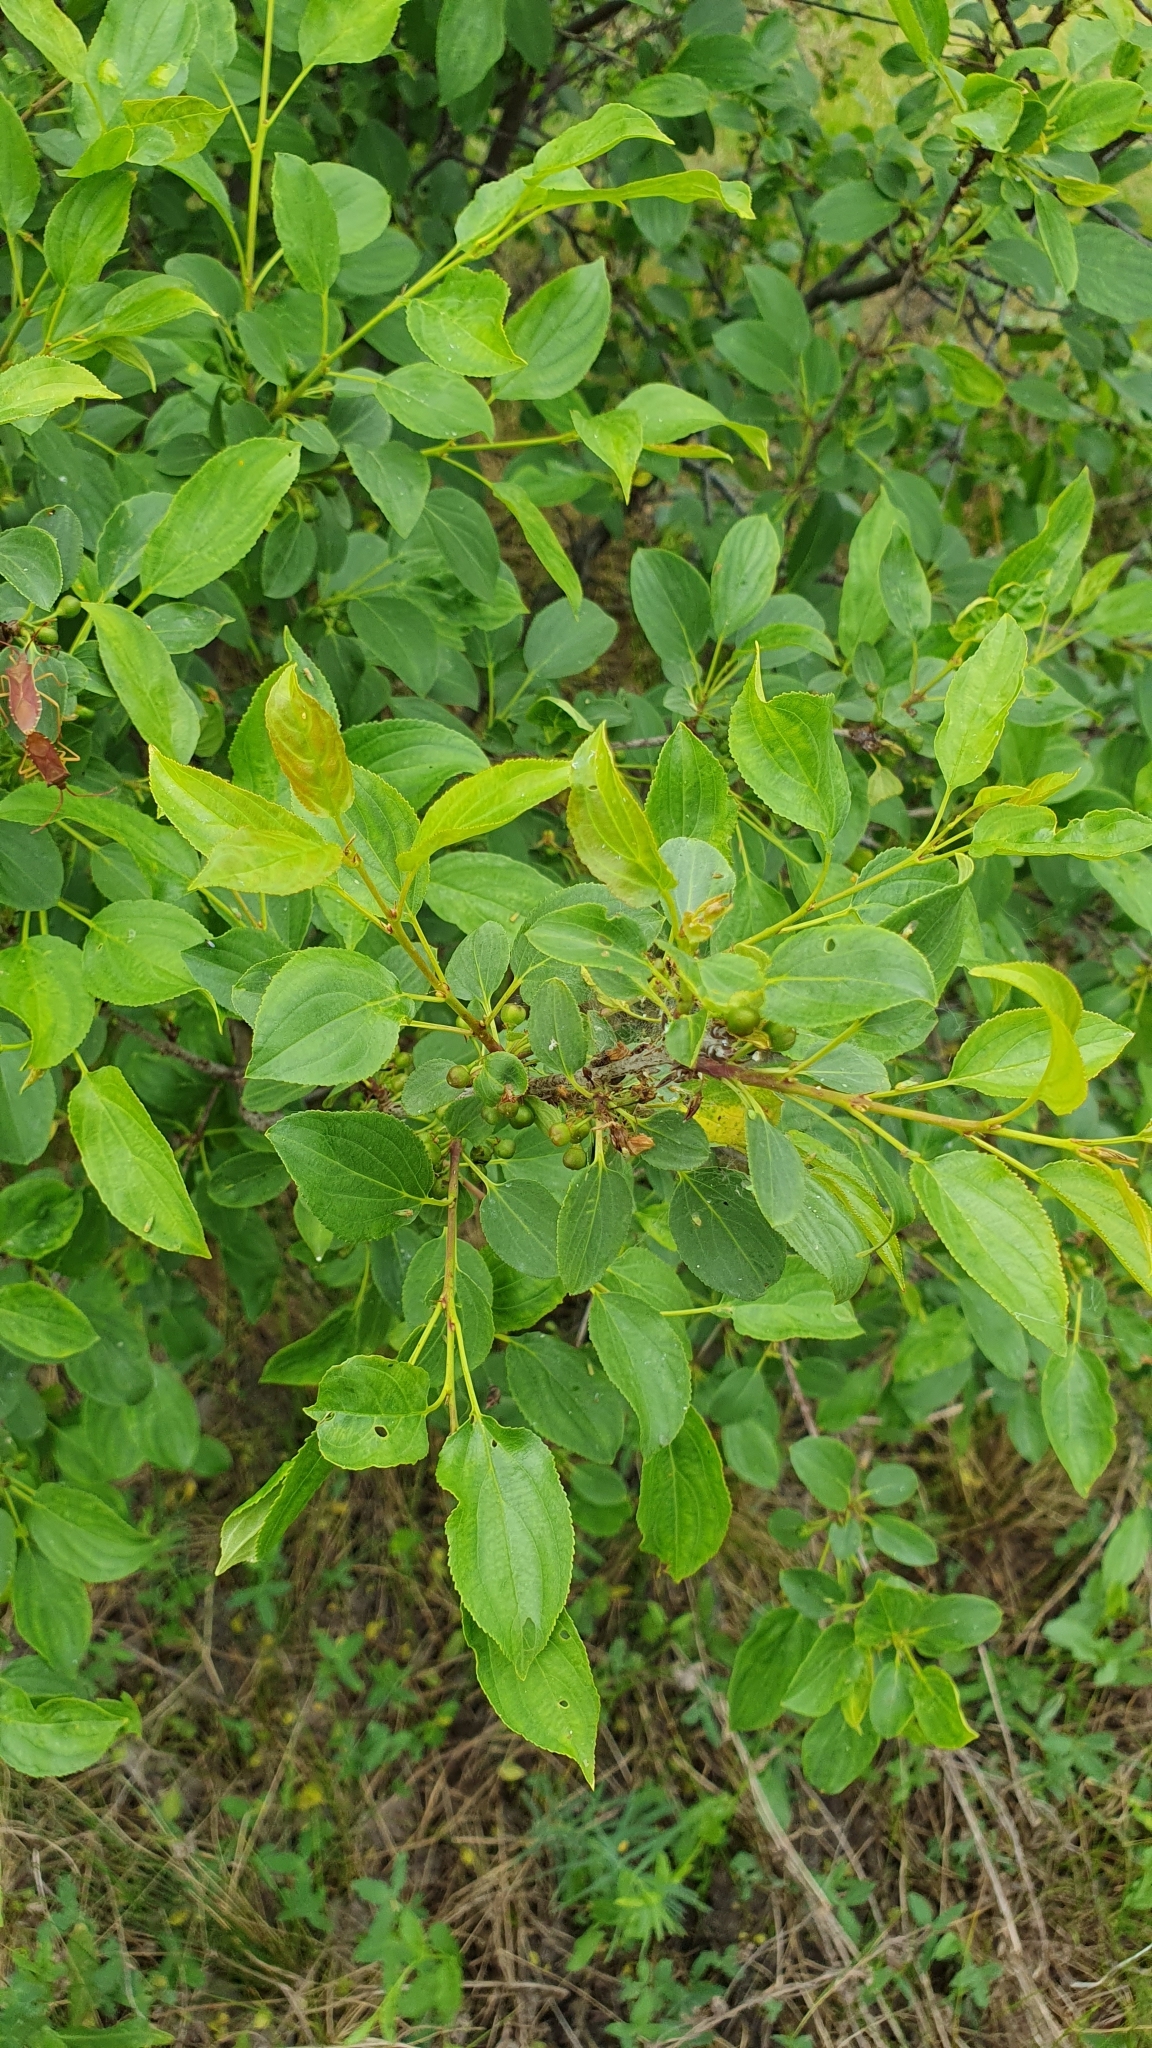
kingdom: Plantae
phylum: Tracheophyta
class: Magnoliopsida
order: Rosales
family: Rhamnaceae
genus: Rhamnus
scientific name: Rhamnus cathartica
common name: Common buckthorn
